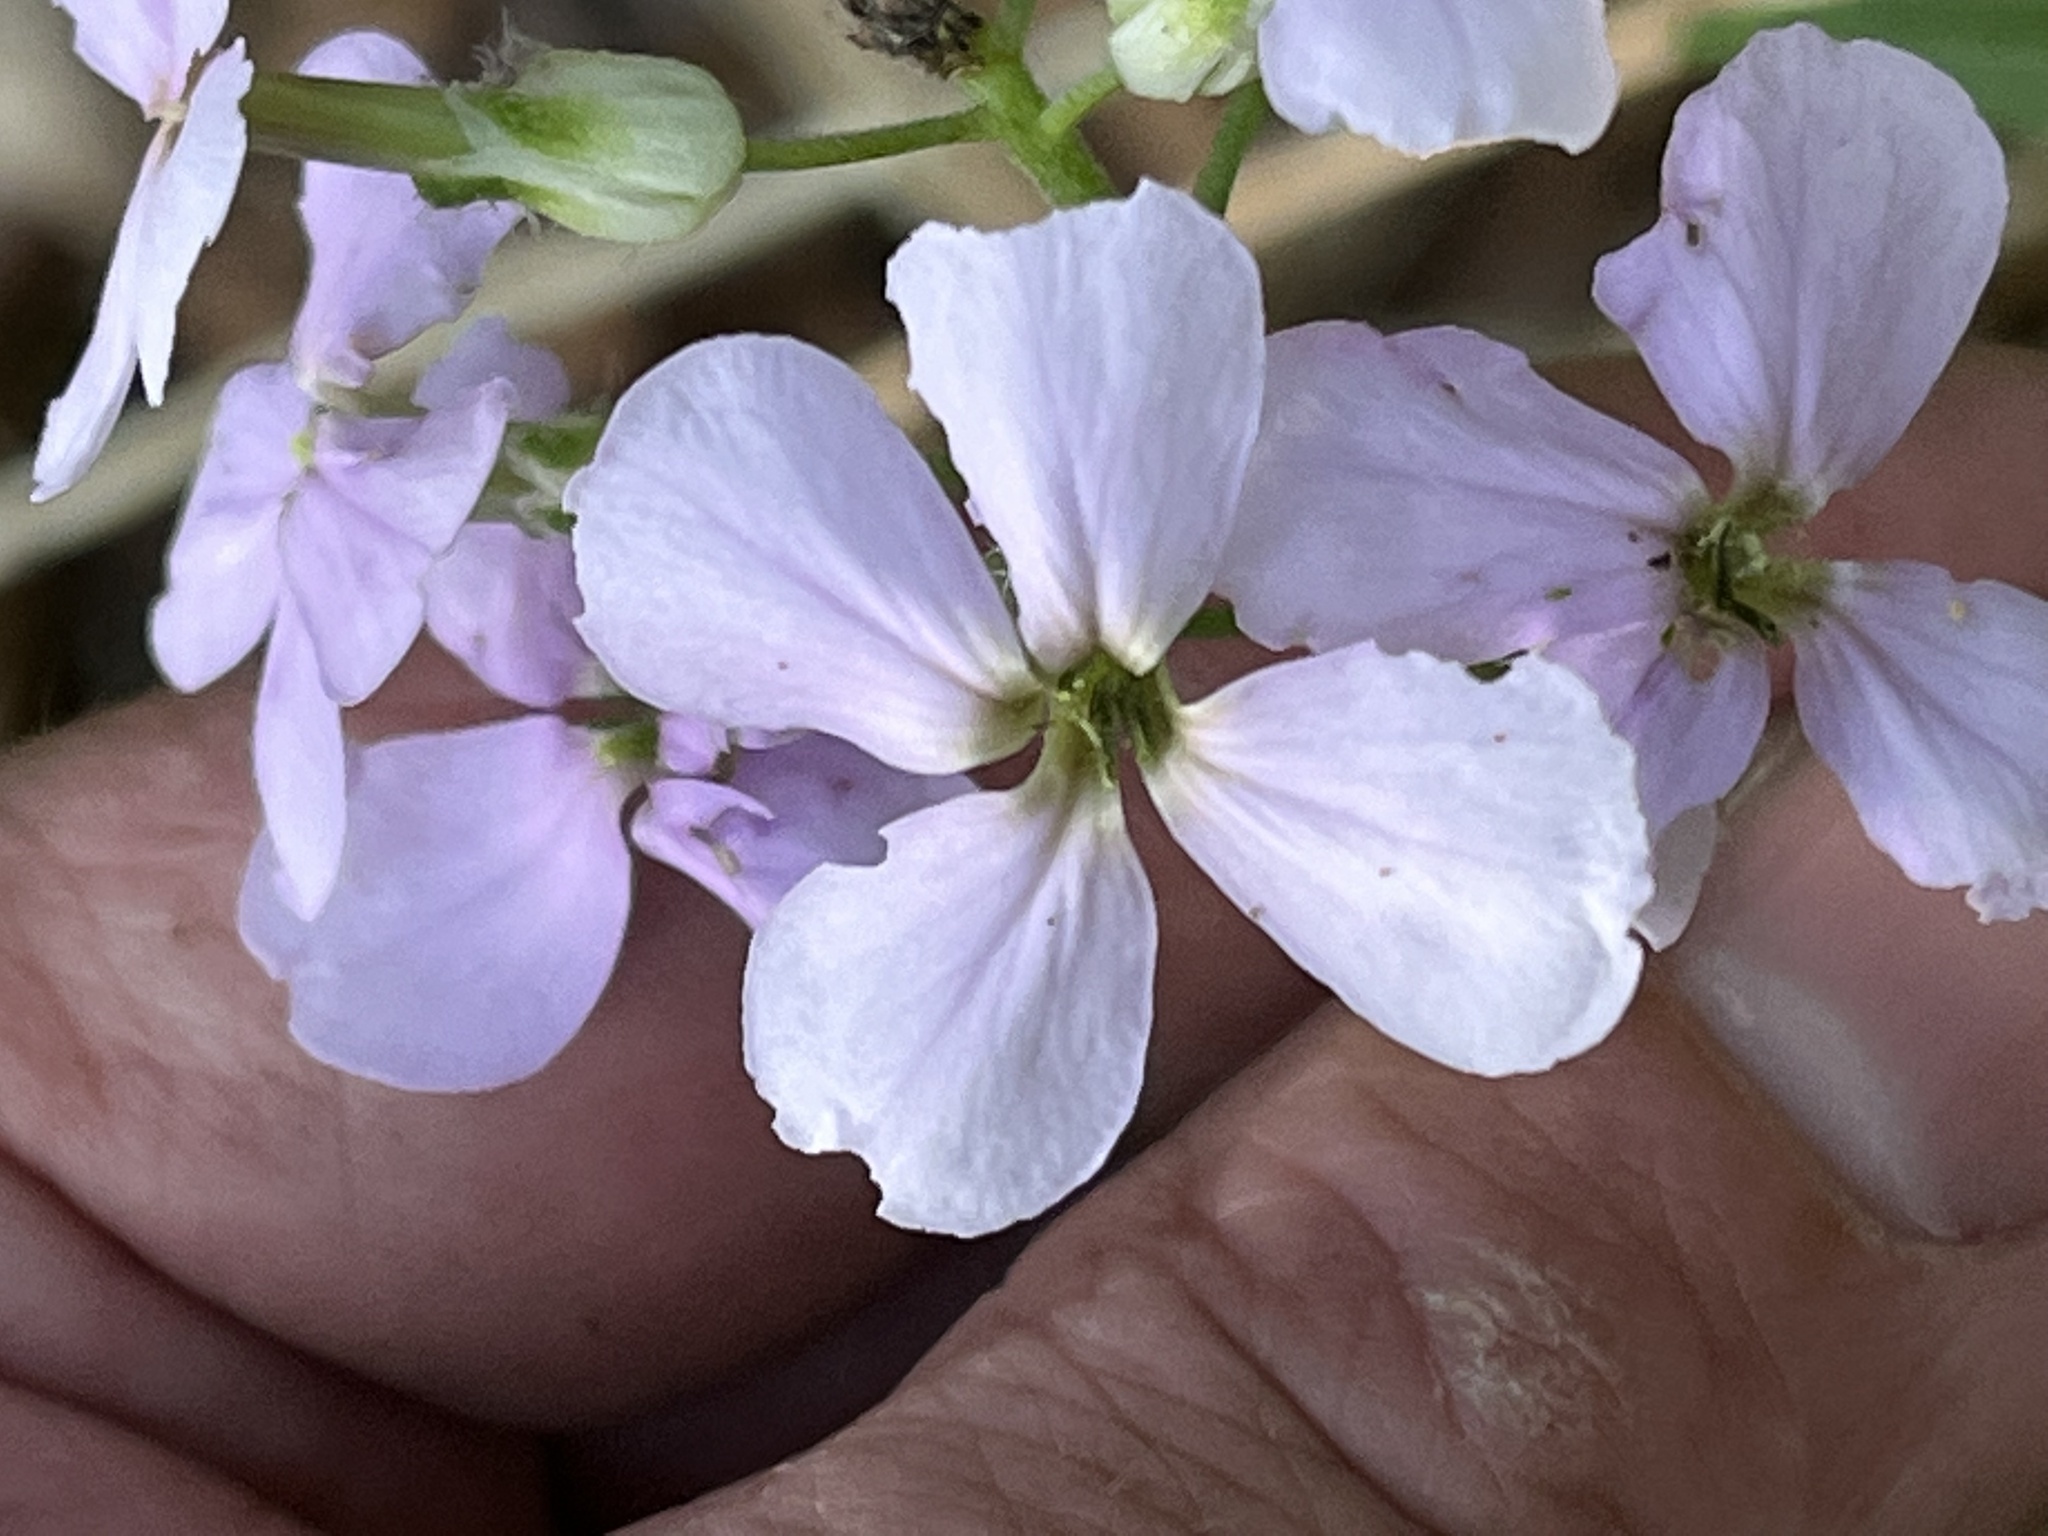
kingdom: Plantae
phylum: Tracheophyta
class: Magnoliopsida
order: Brassicales
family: Brassicaceae
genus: Hesperis
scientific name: Hesperis matronalis
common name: Dame's-violet
